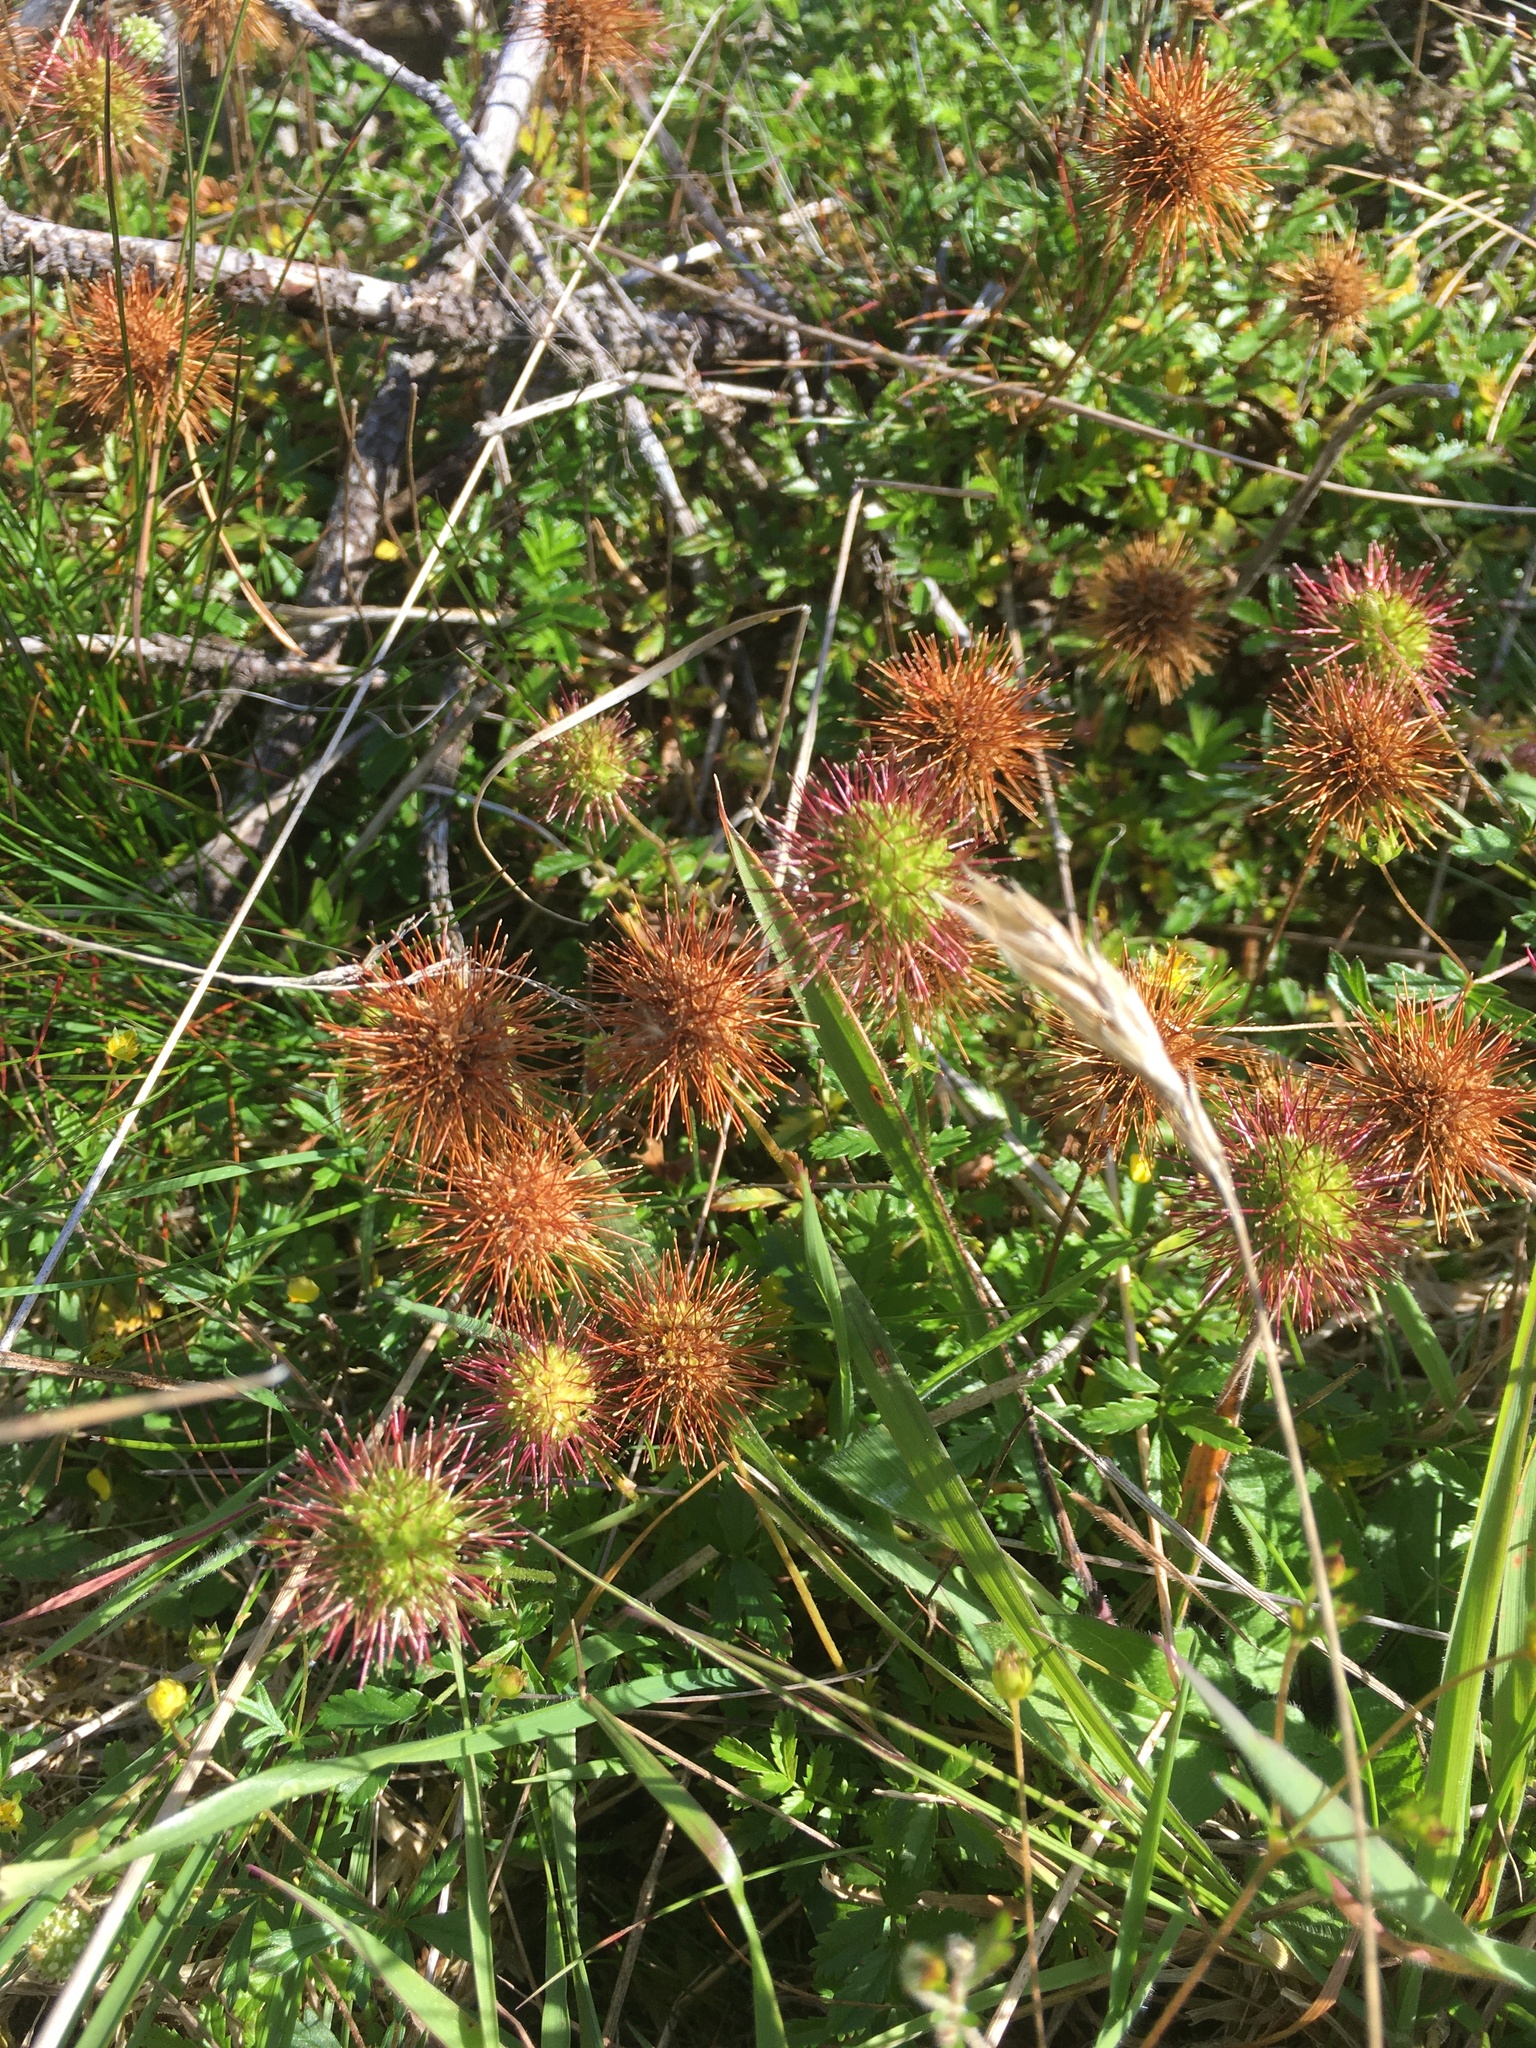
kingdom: Plantae
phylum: Tracheophyta
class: Magnoliopsida
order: Rosales
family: Rosaceae
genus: Acaena
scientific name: Acaena novae-zelandiae
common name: Pirri-pirri-bur
